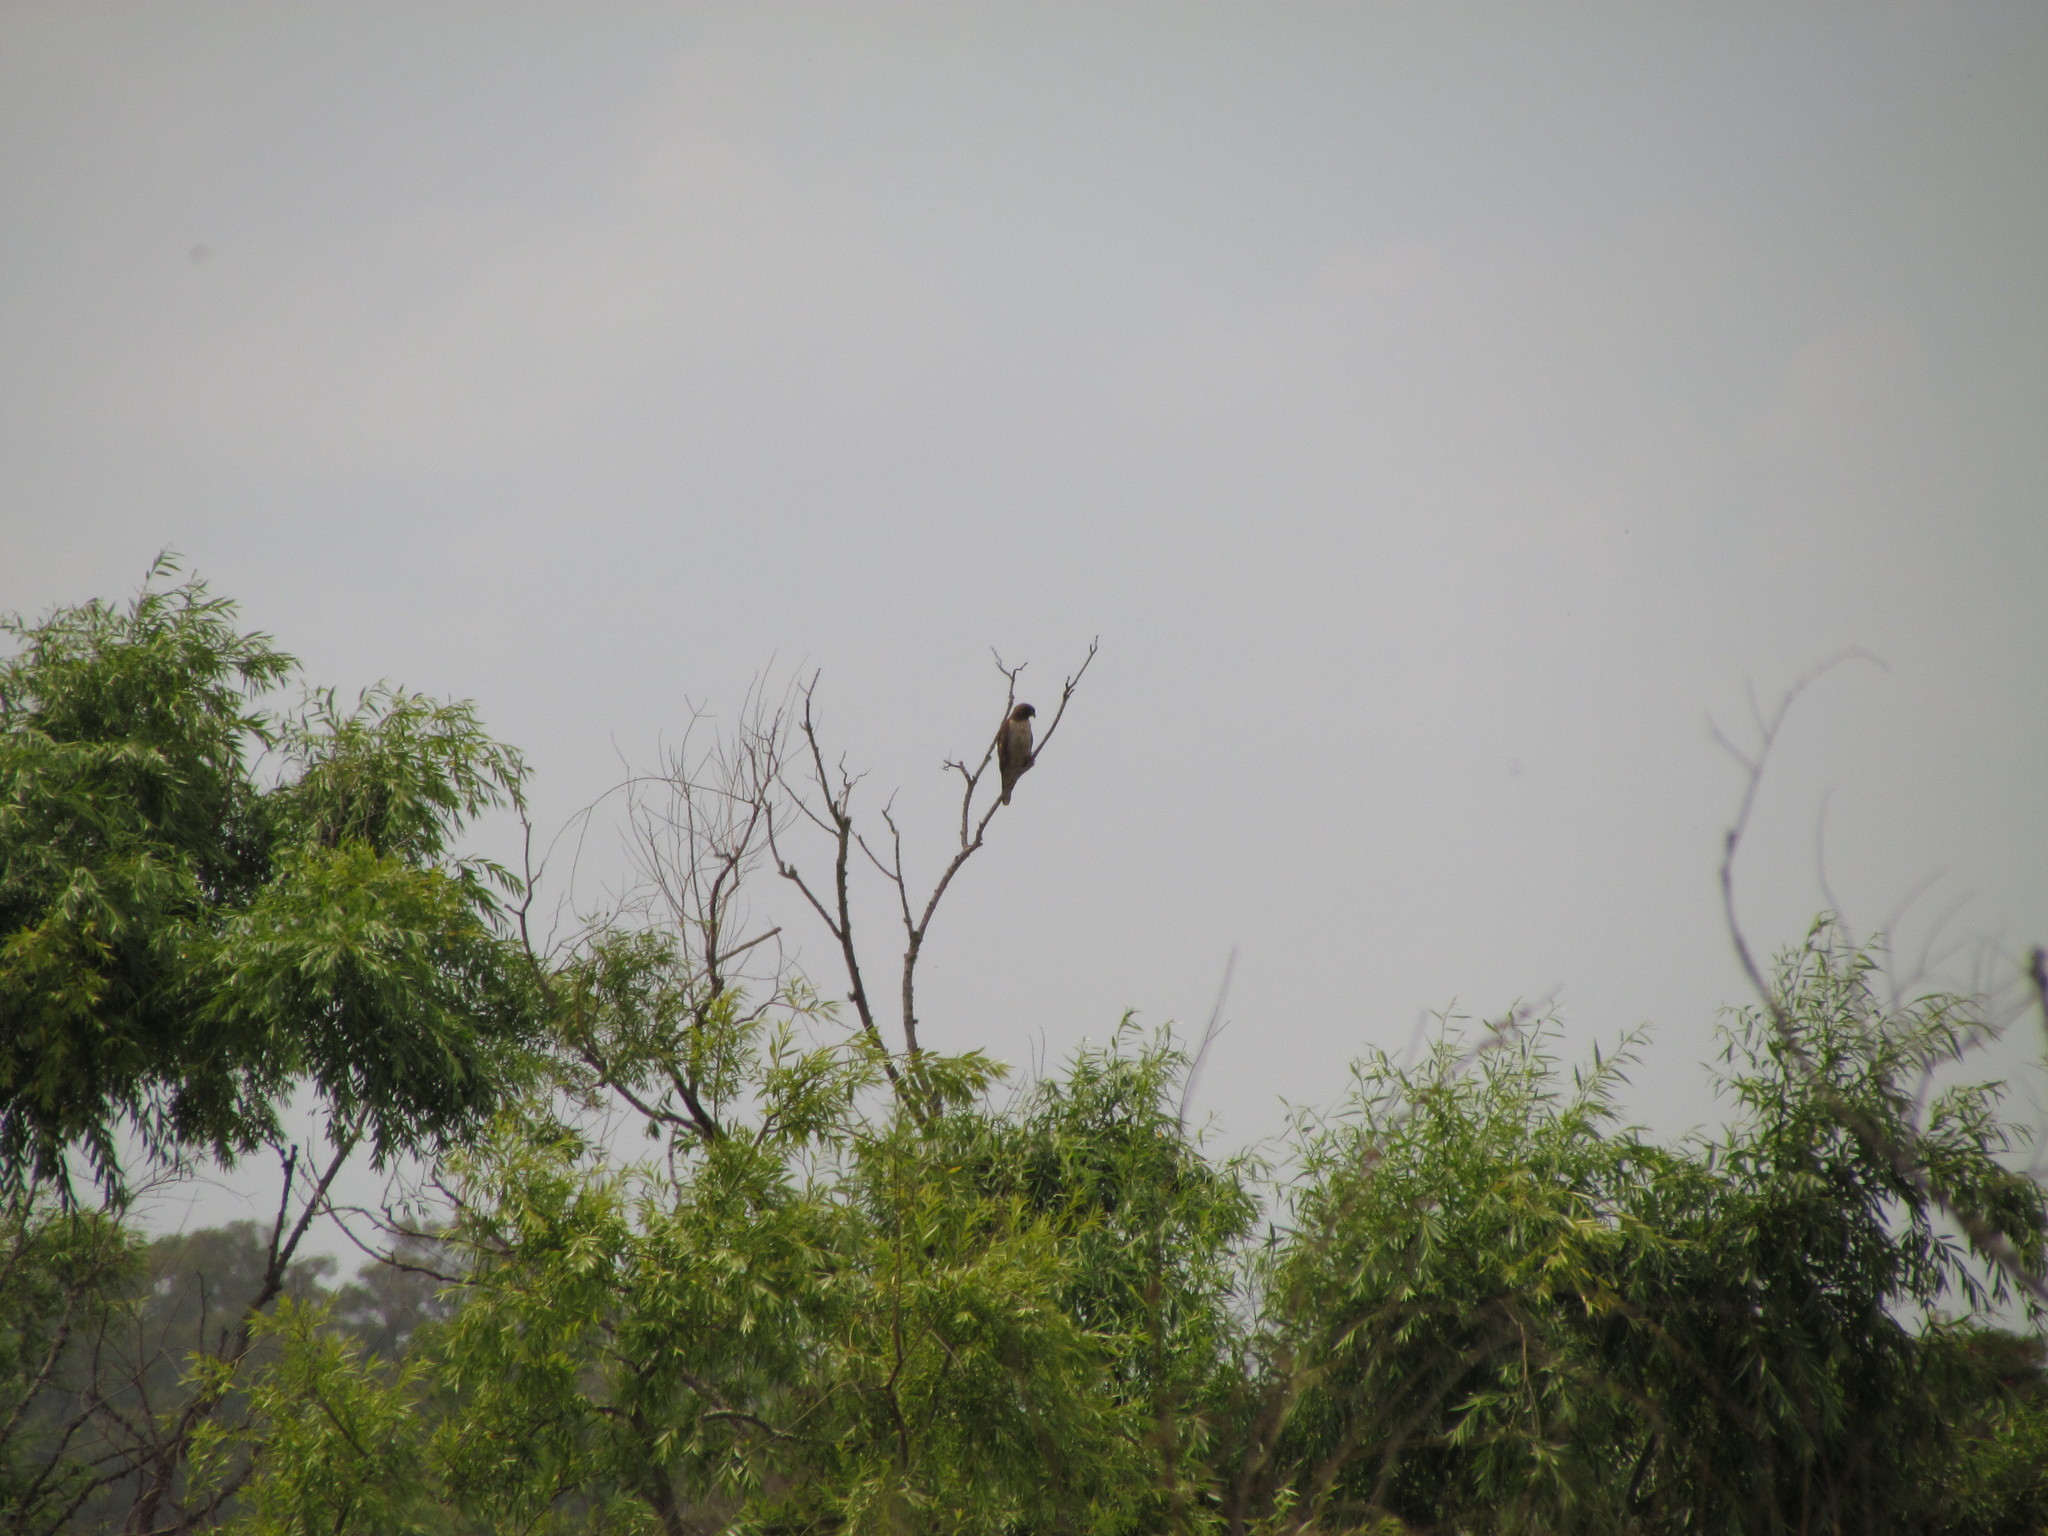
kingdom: Animalia
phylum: Chordata
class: Aves
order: Accipitriformes
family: Accipitridae
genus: Rupornis
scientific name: Rupornis magnirostris
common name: Roadside hawk
